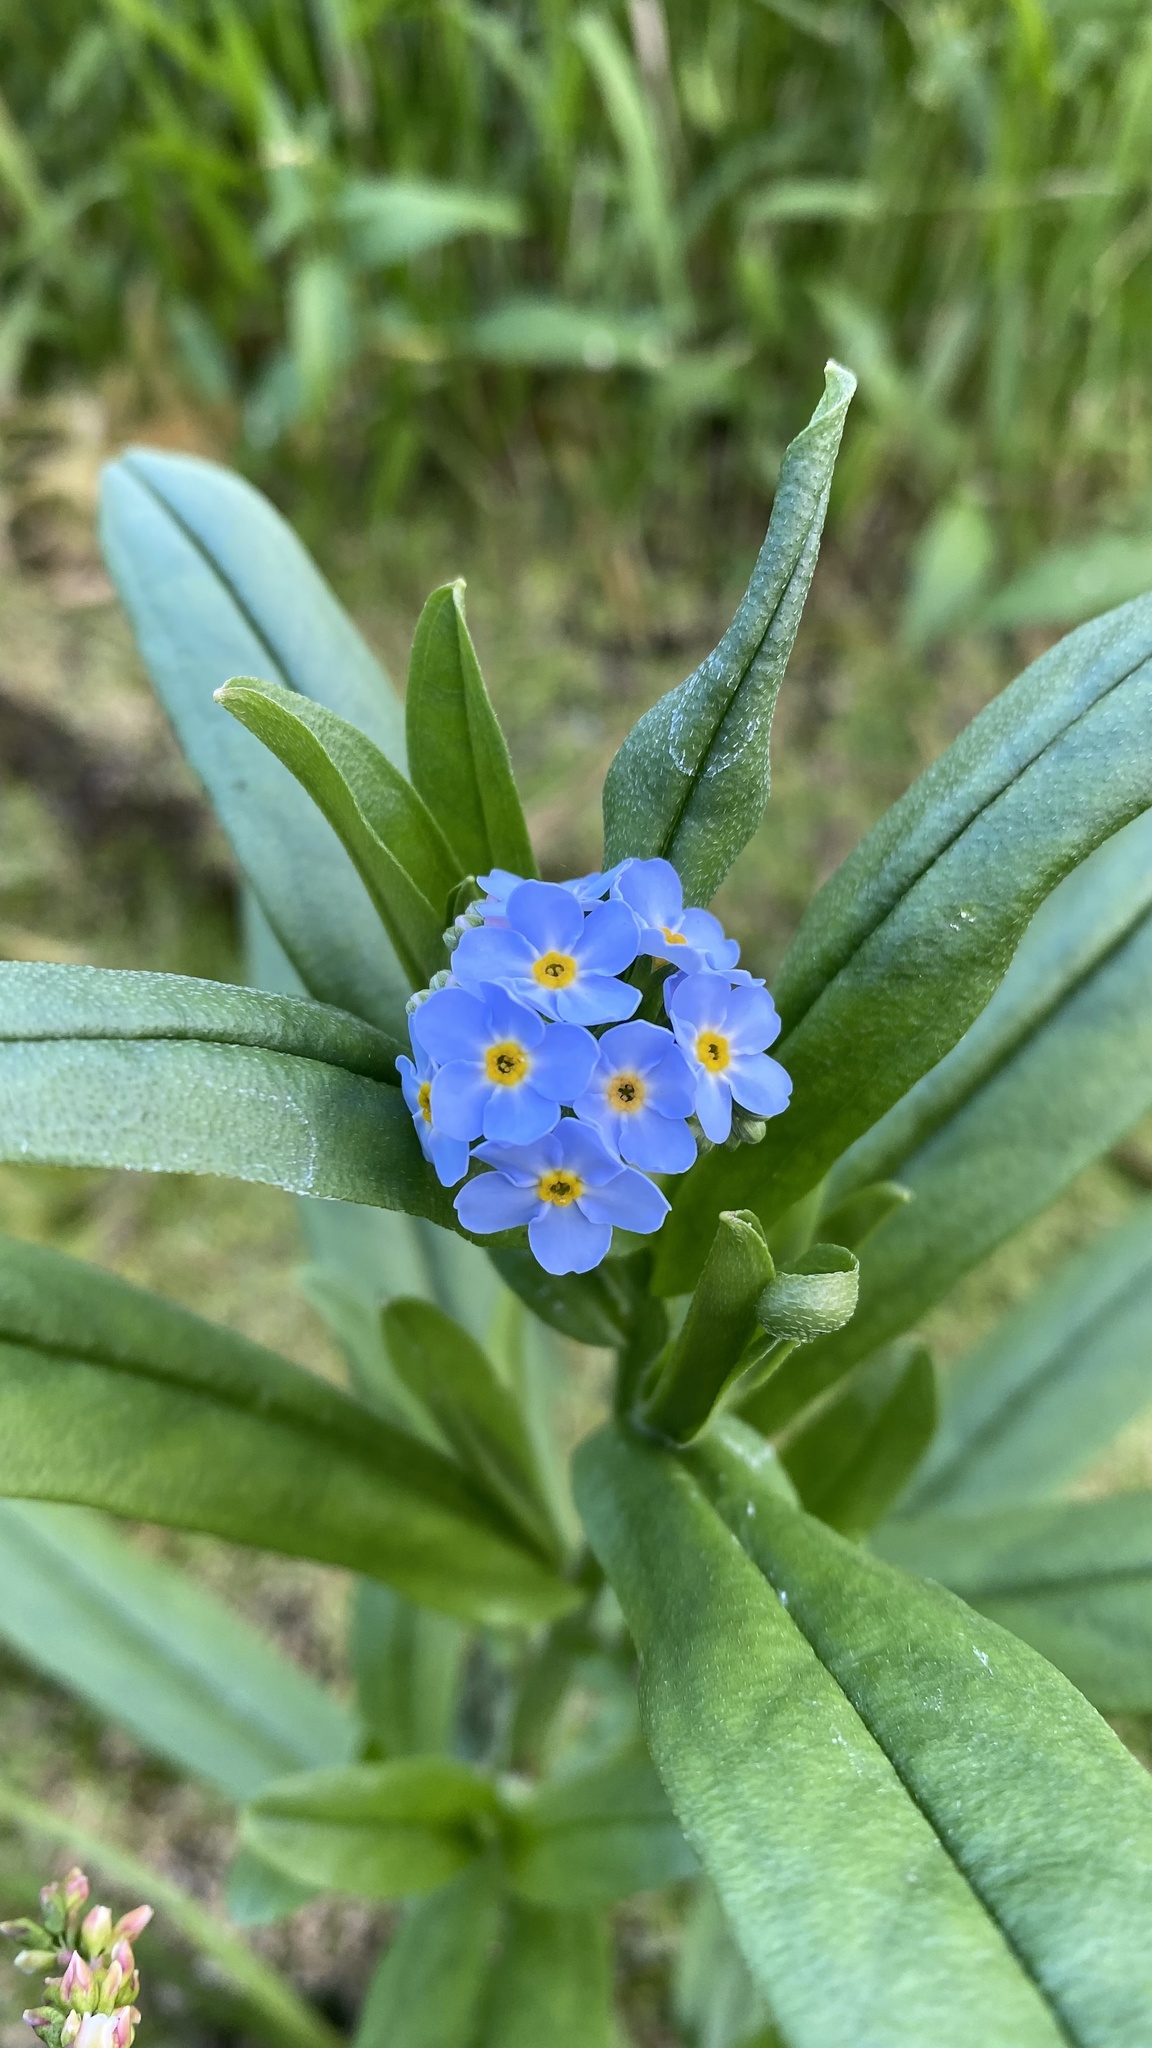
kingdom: Plantae
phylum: Tracheophyta
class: Magnoliopsida
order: Boraginales
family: Boraginaceae
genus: Myosotis
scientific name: Myosotis scorpioides
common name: Water forget-me-not
